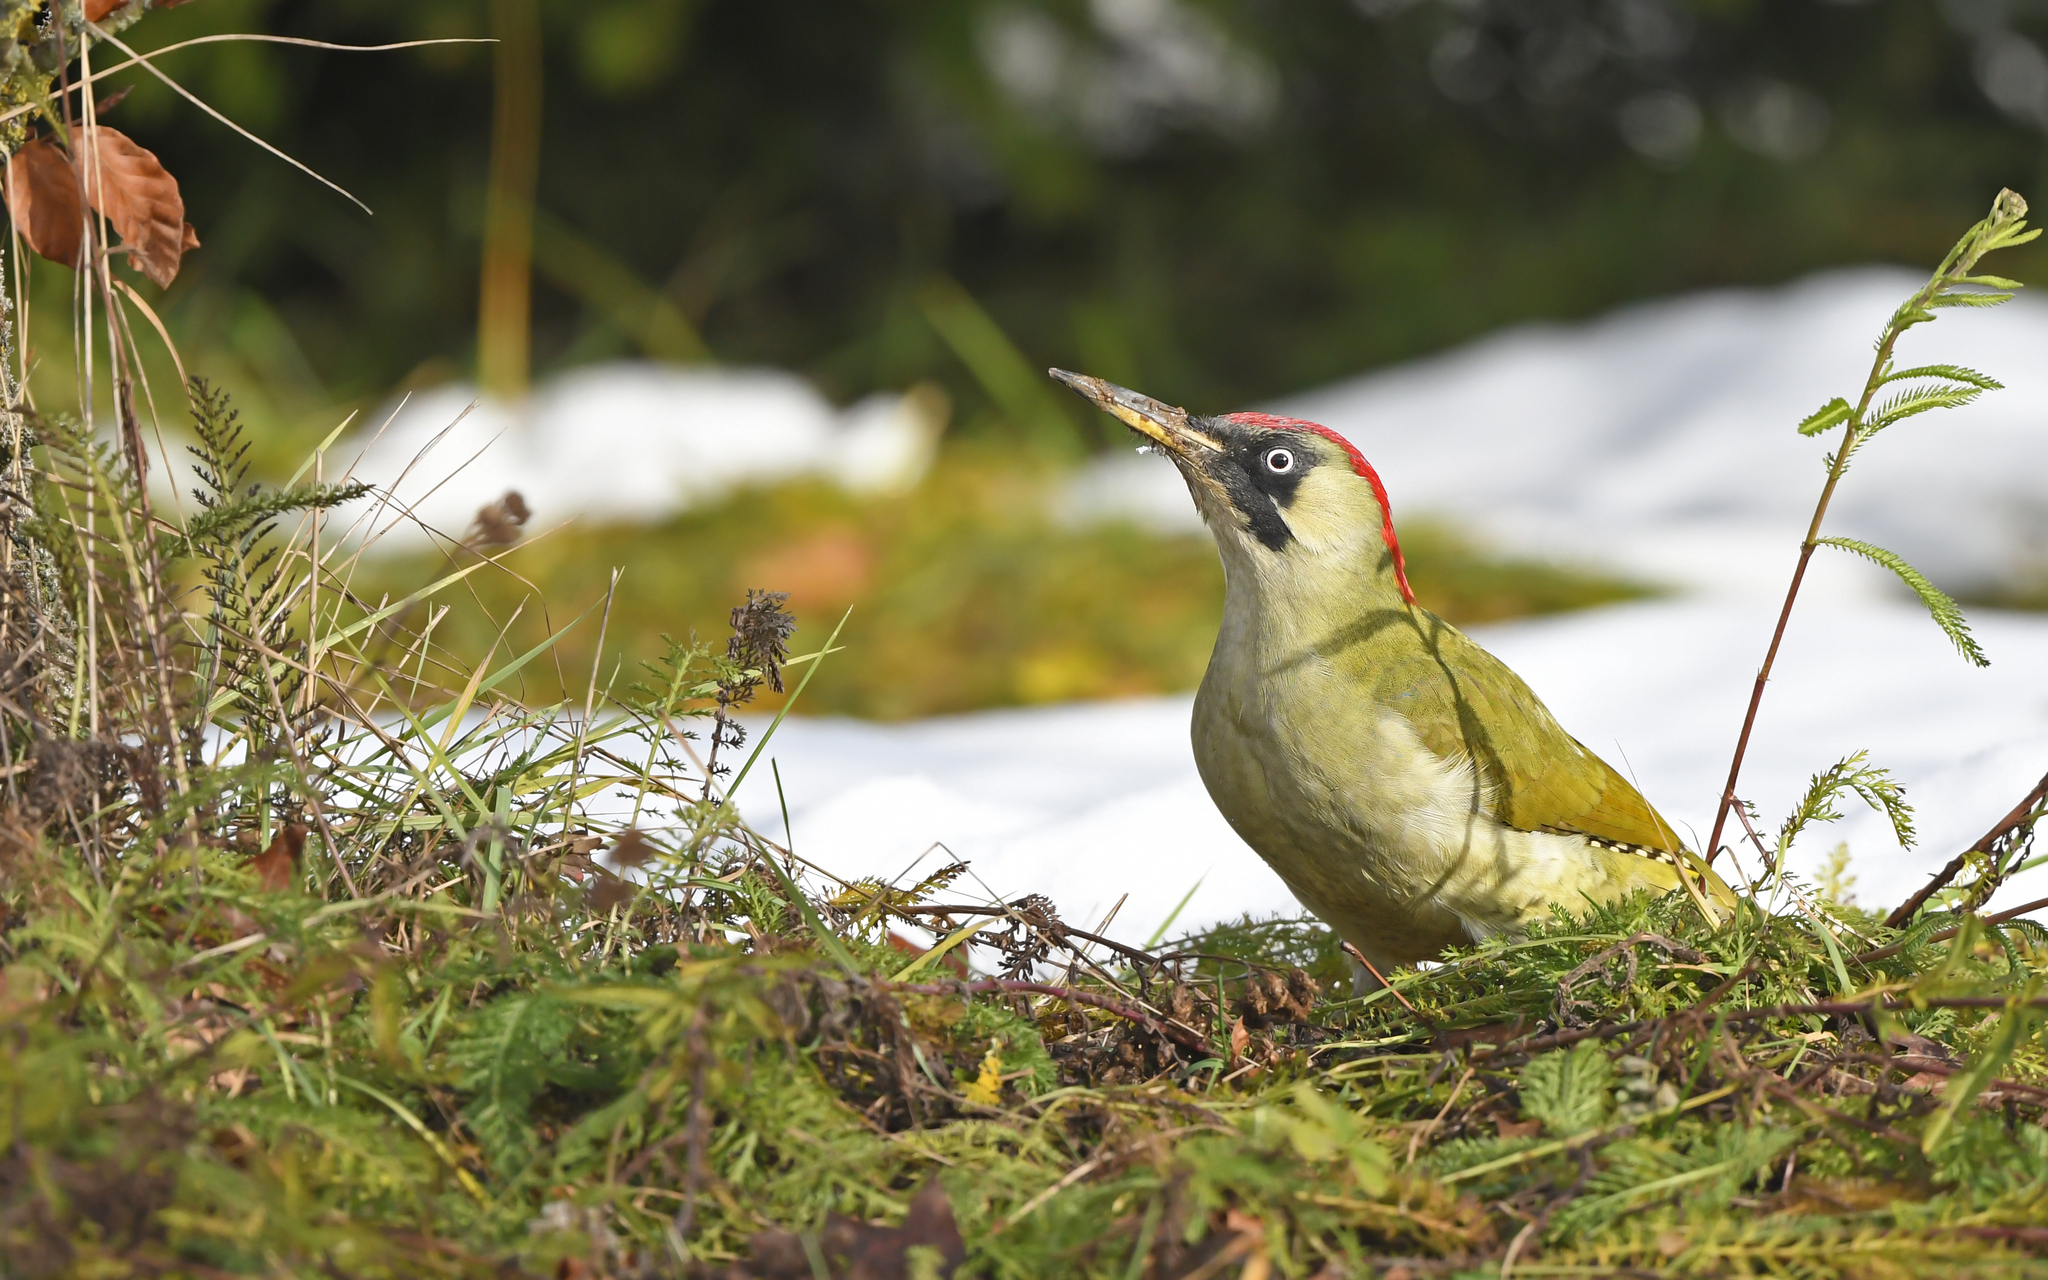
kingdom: Animalia
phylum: Chordata
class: Aves
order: Piciformes
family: Picidae
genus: Picus
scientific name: Picus viridis
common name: European green woodpecker
